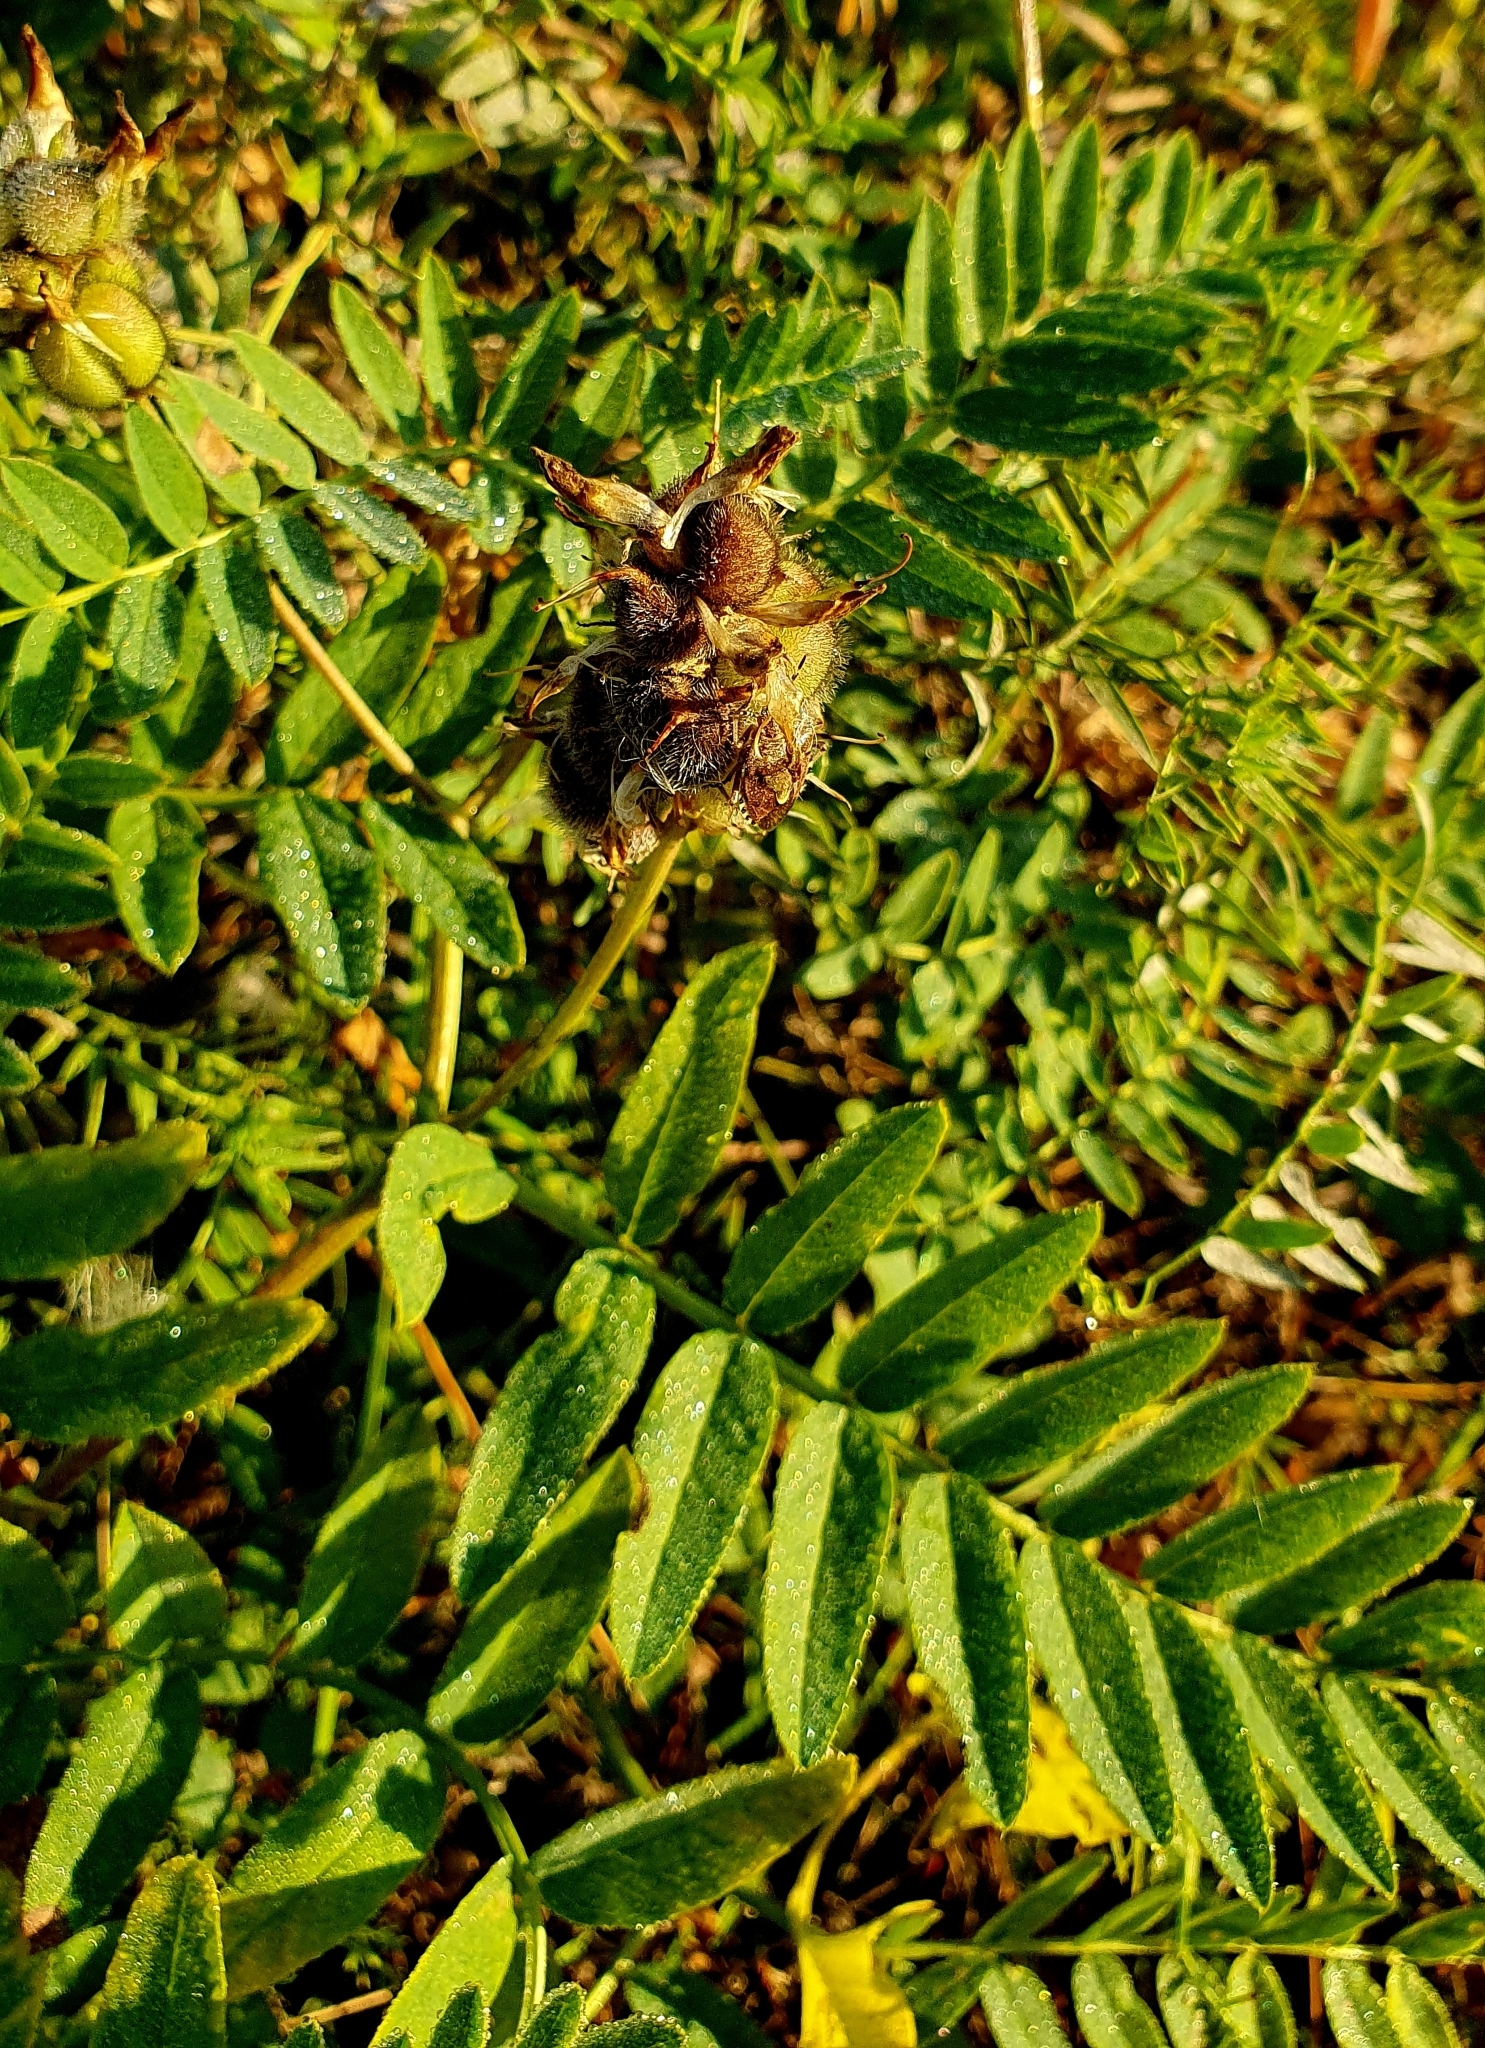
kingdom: Plantae
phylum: Tracheophyta
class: Magnoliopsida
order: Fabales
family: Fabaceae
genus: Astragalus
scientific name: Astragalus cicer
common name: Chick-pea milk-vetch
